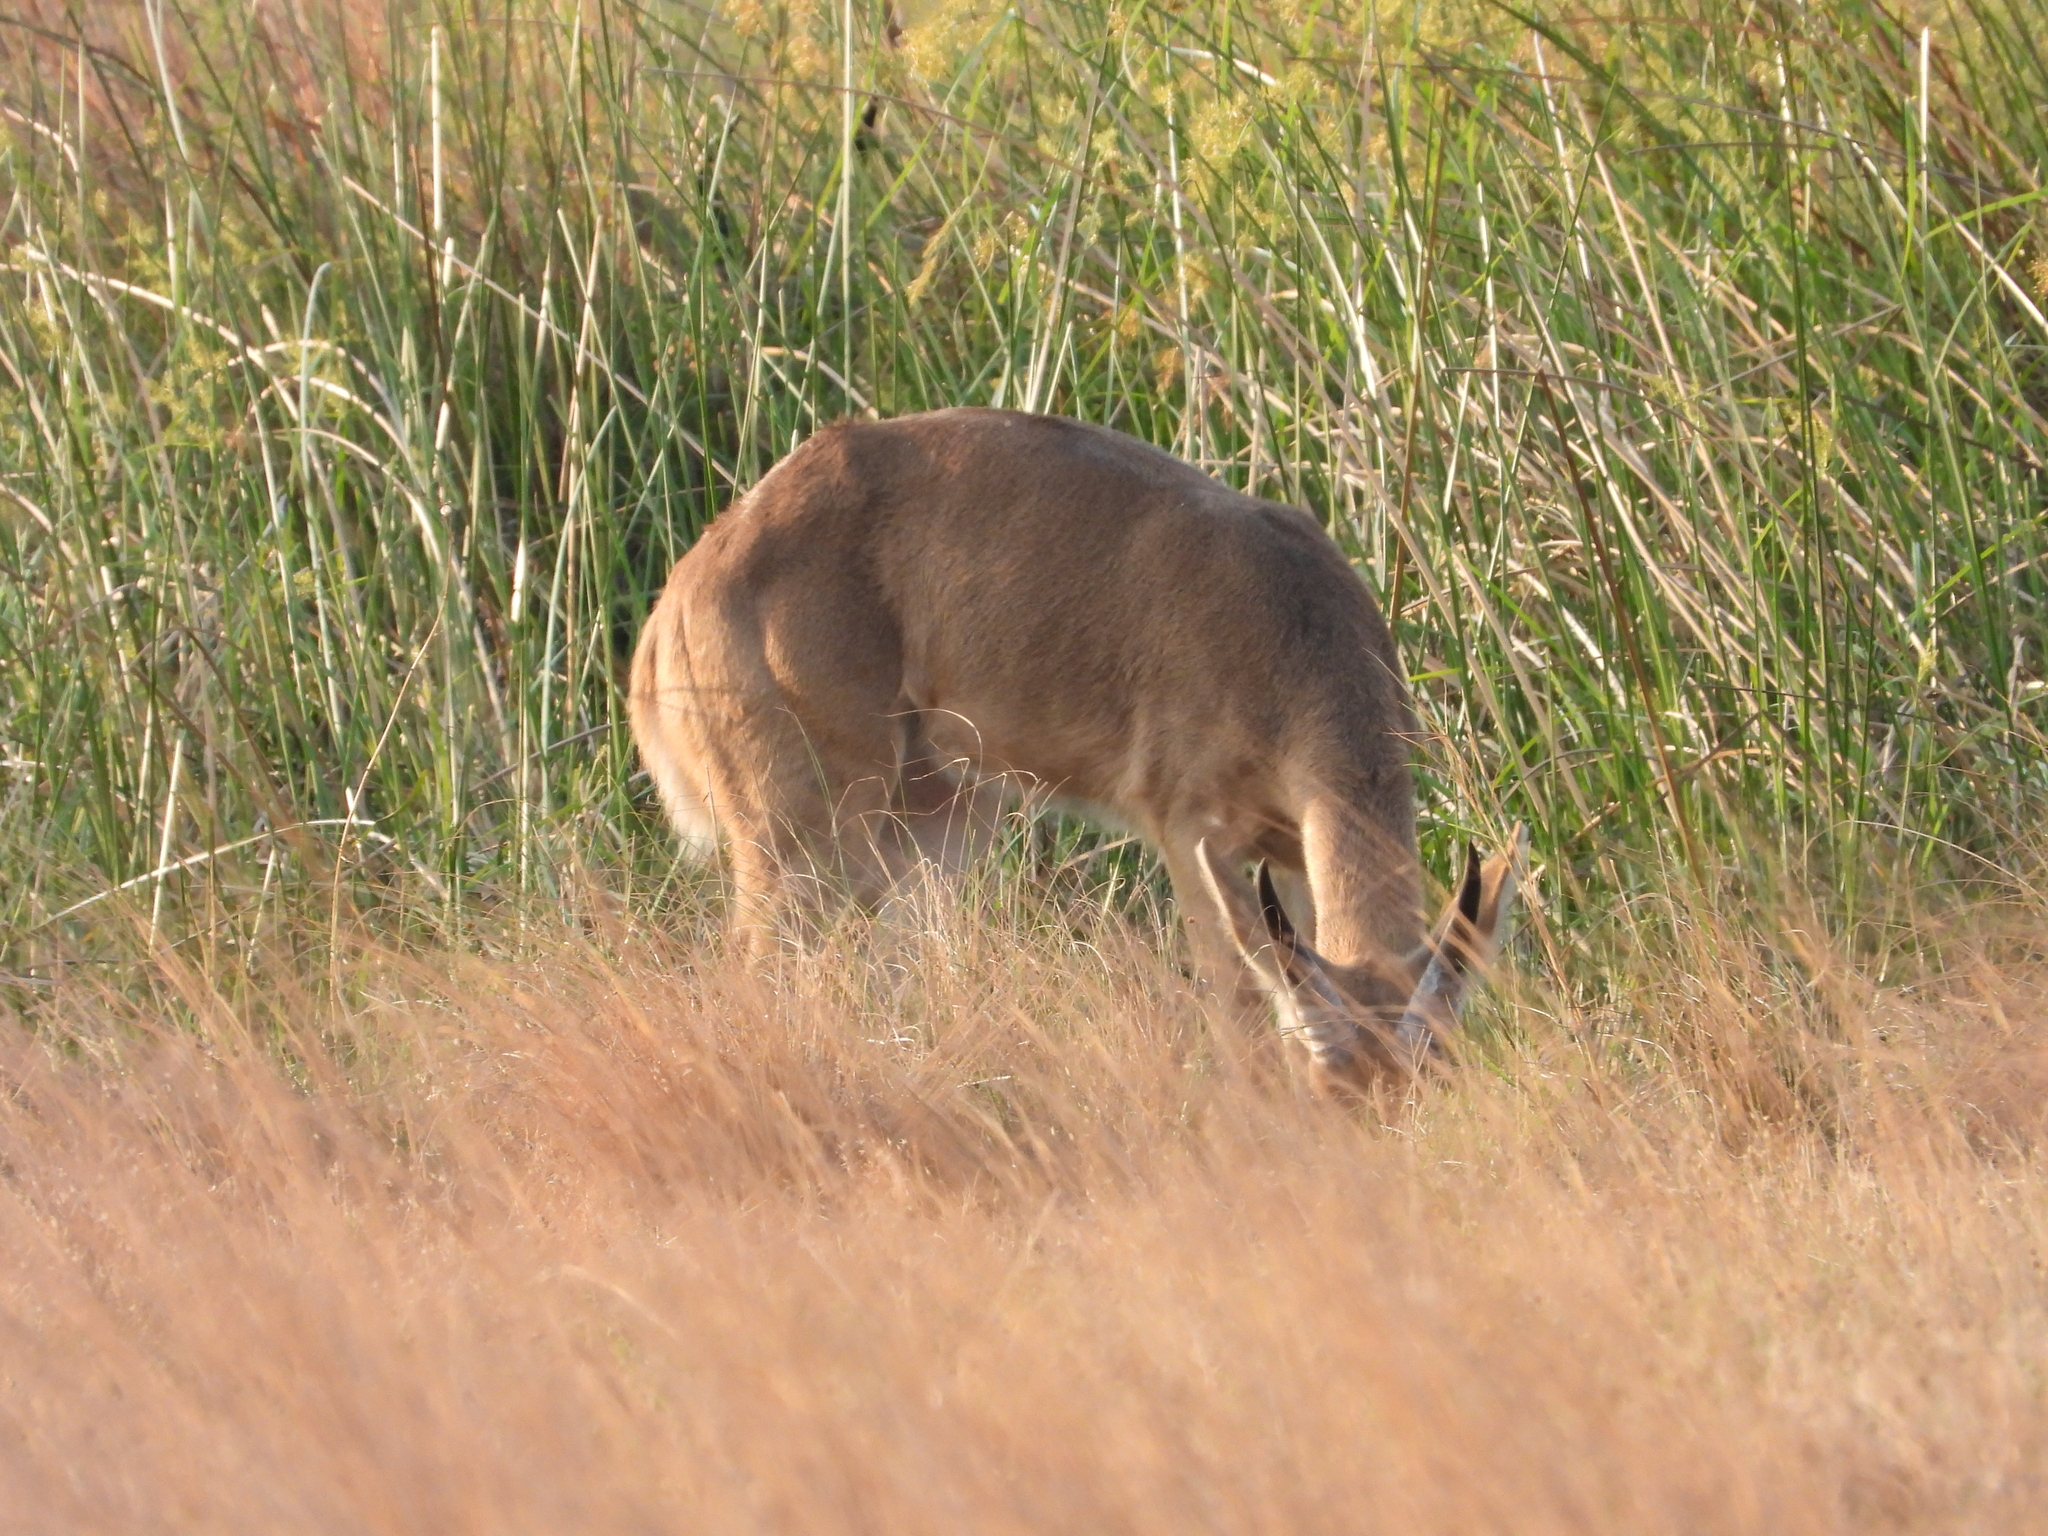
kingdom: Animalia
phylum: Chordata
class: Mammalia
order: Artiodactyla
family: Bovidae
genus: Redunca
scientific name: Redunca arundinum
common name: Southern reedbuck
